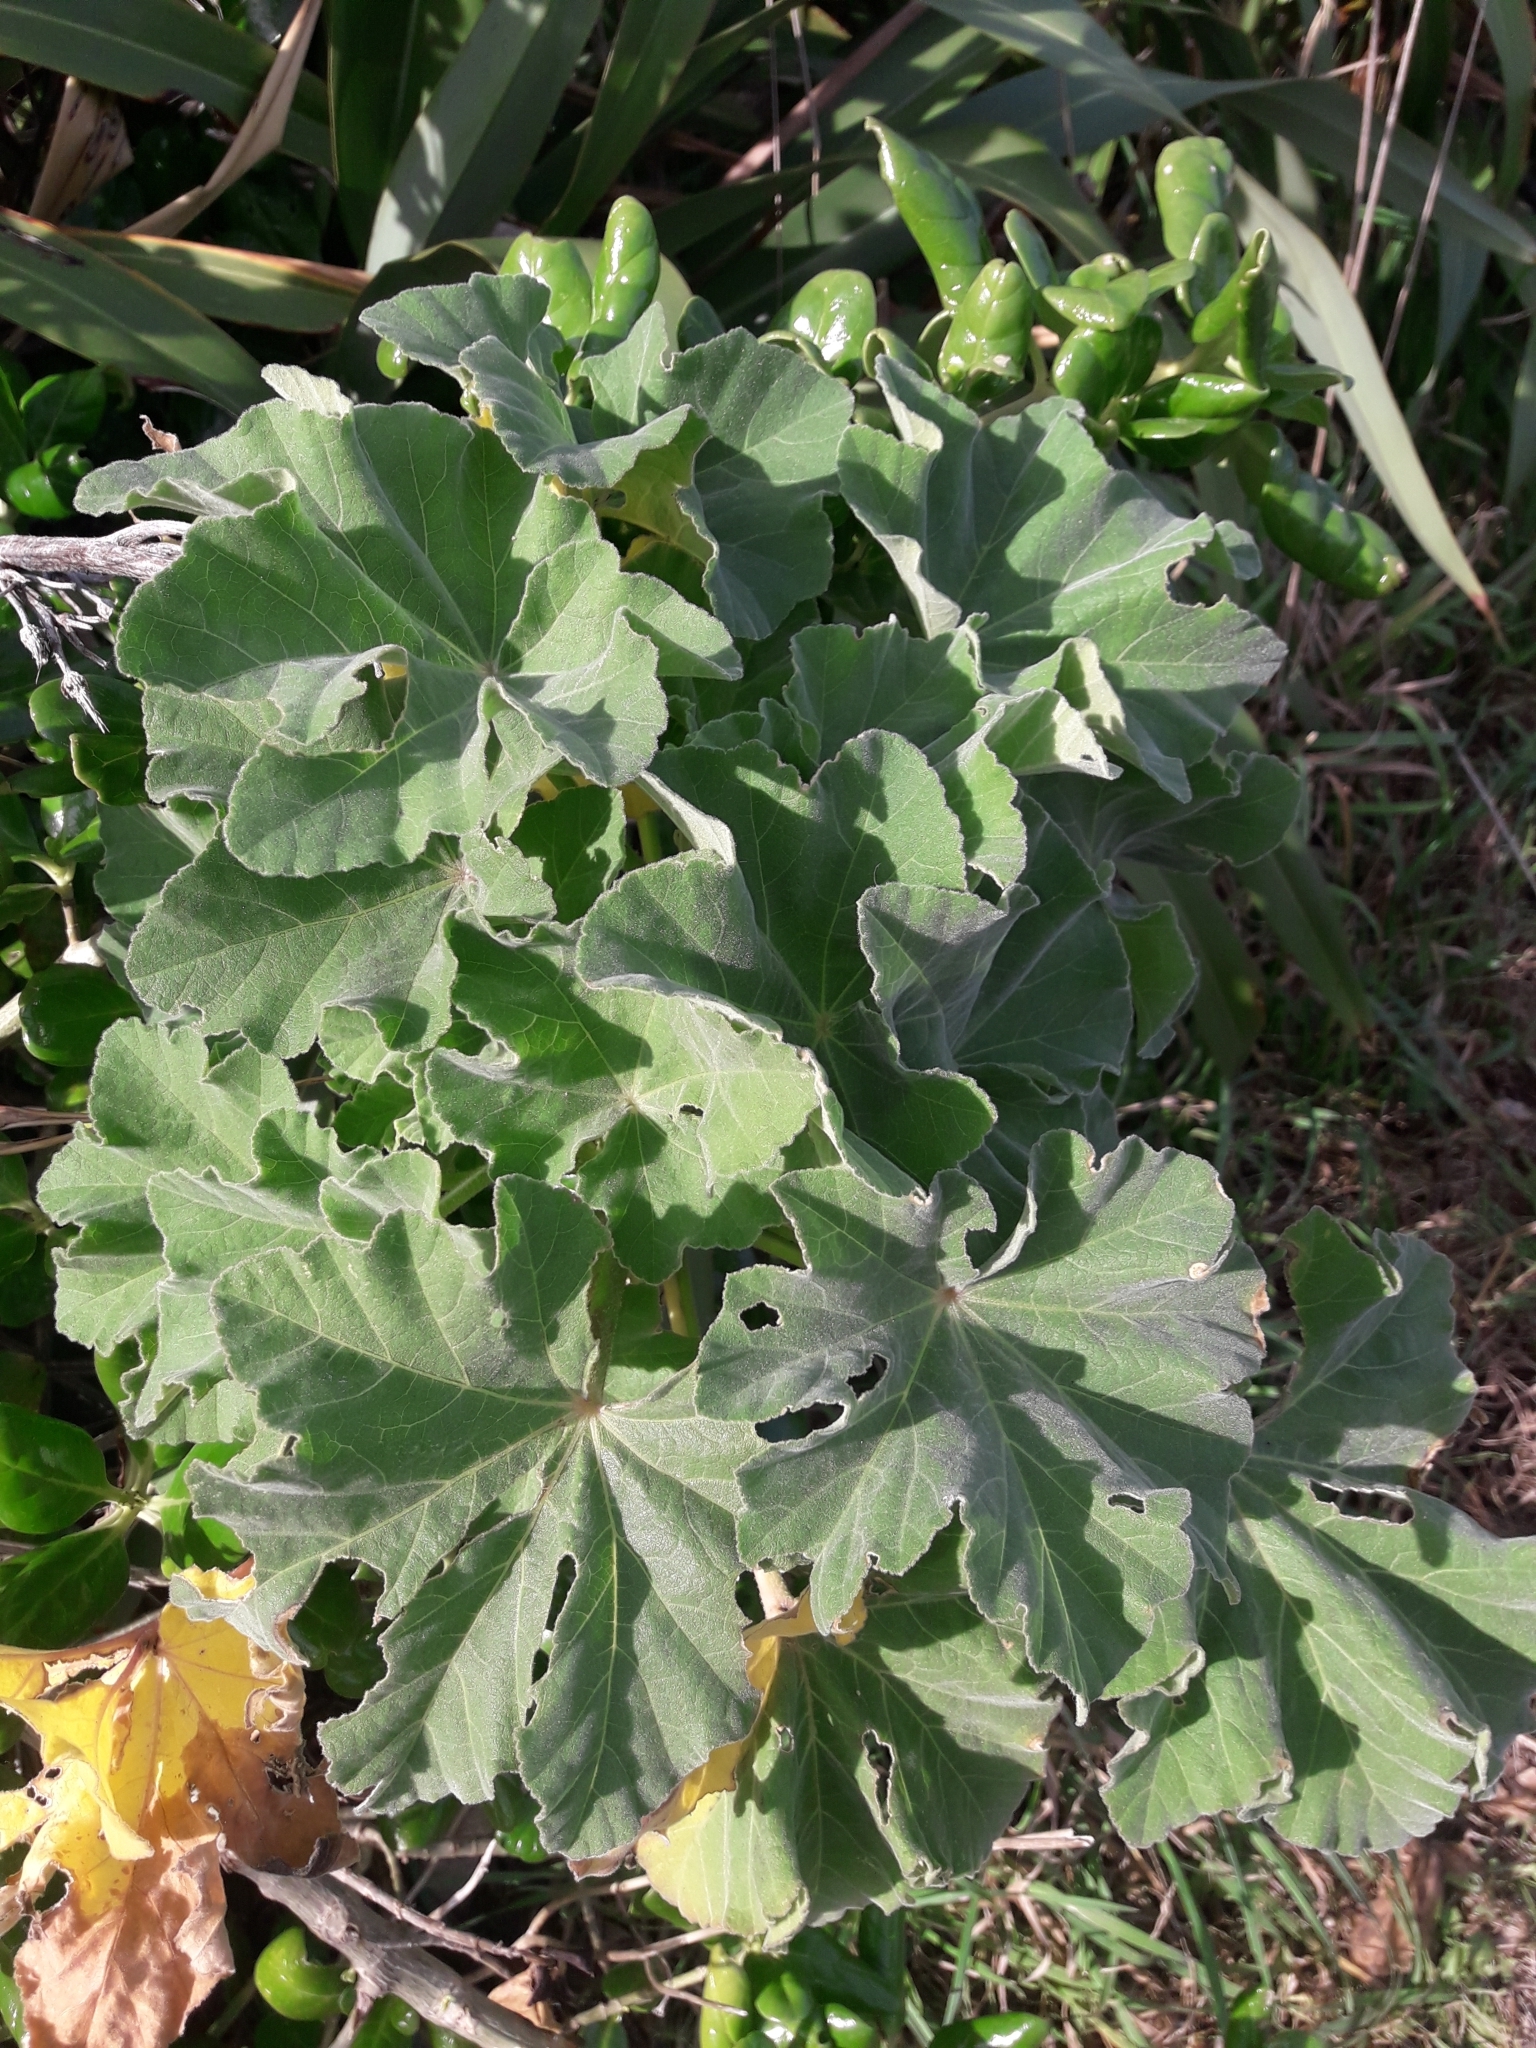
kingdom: Plantae
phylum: Tracheophyta
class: Magnoliopsida
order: Malvales
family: Malvaceae
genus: Malva
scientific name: Malva arborea
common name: Tree mallow
